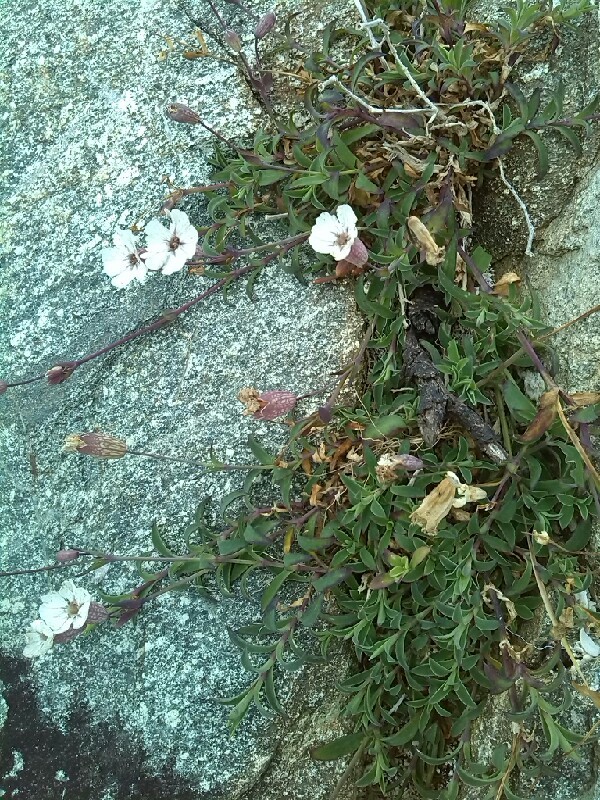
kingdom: Plantae
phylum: Tracheophyta
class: Magnoliopsida
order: Caryophyllales
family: Caryophyllaceae
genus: Silene
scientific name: Silene uniflora
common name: Sea campion
